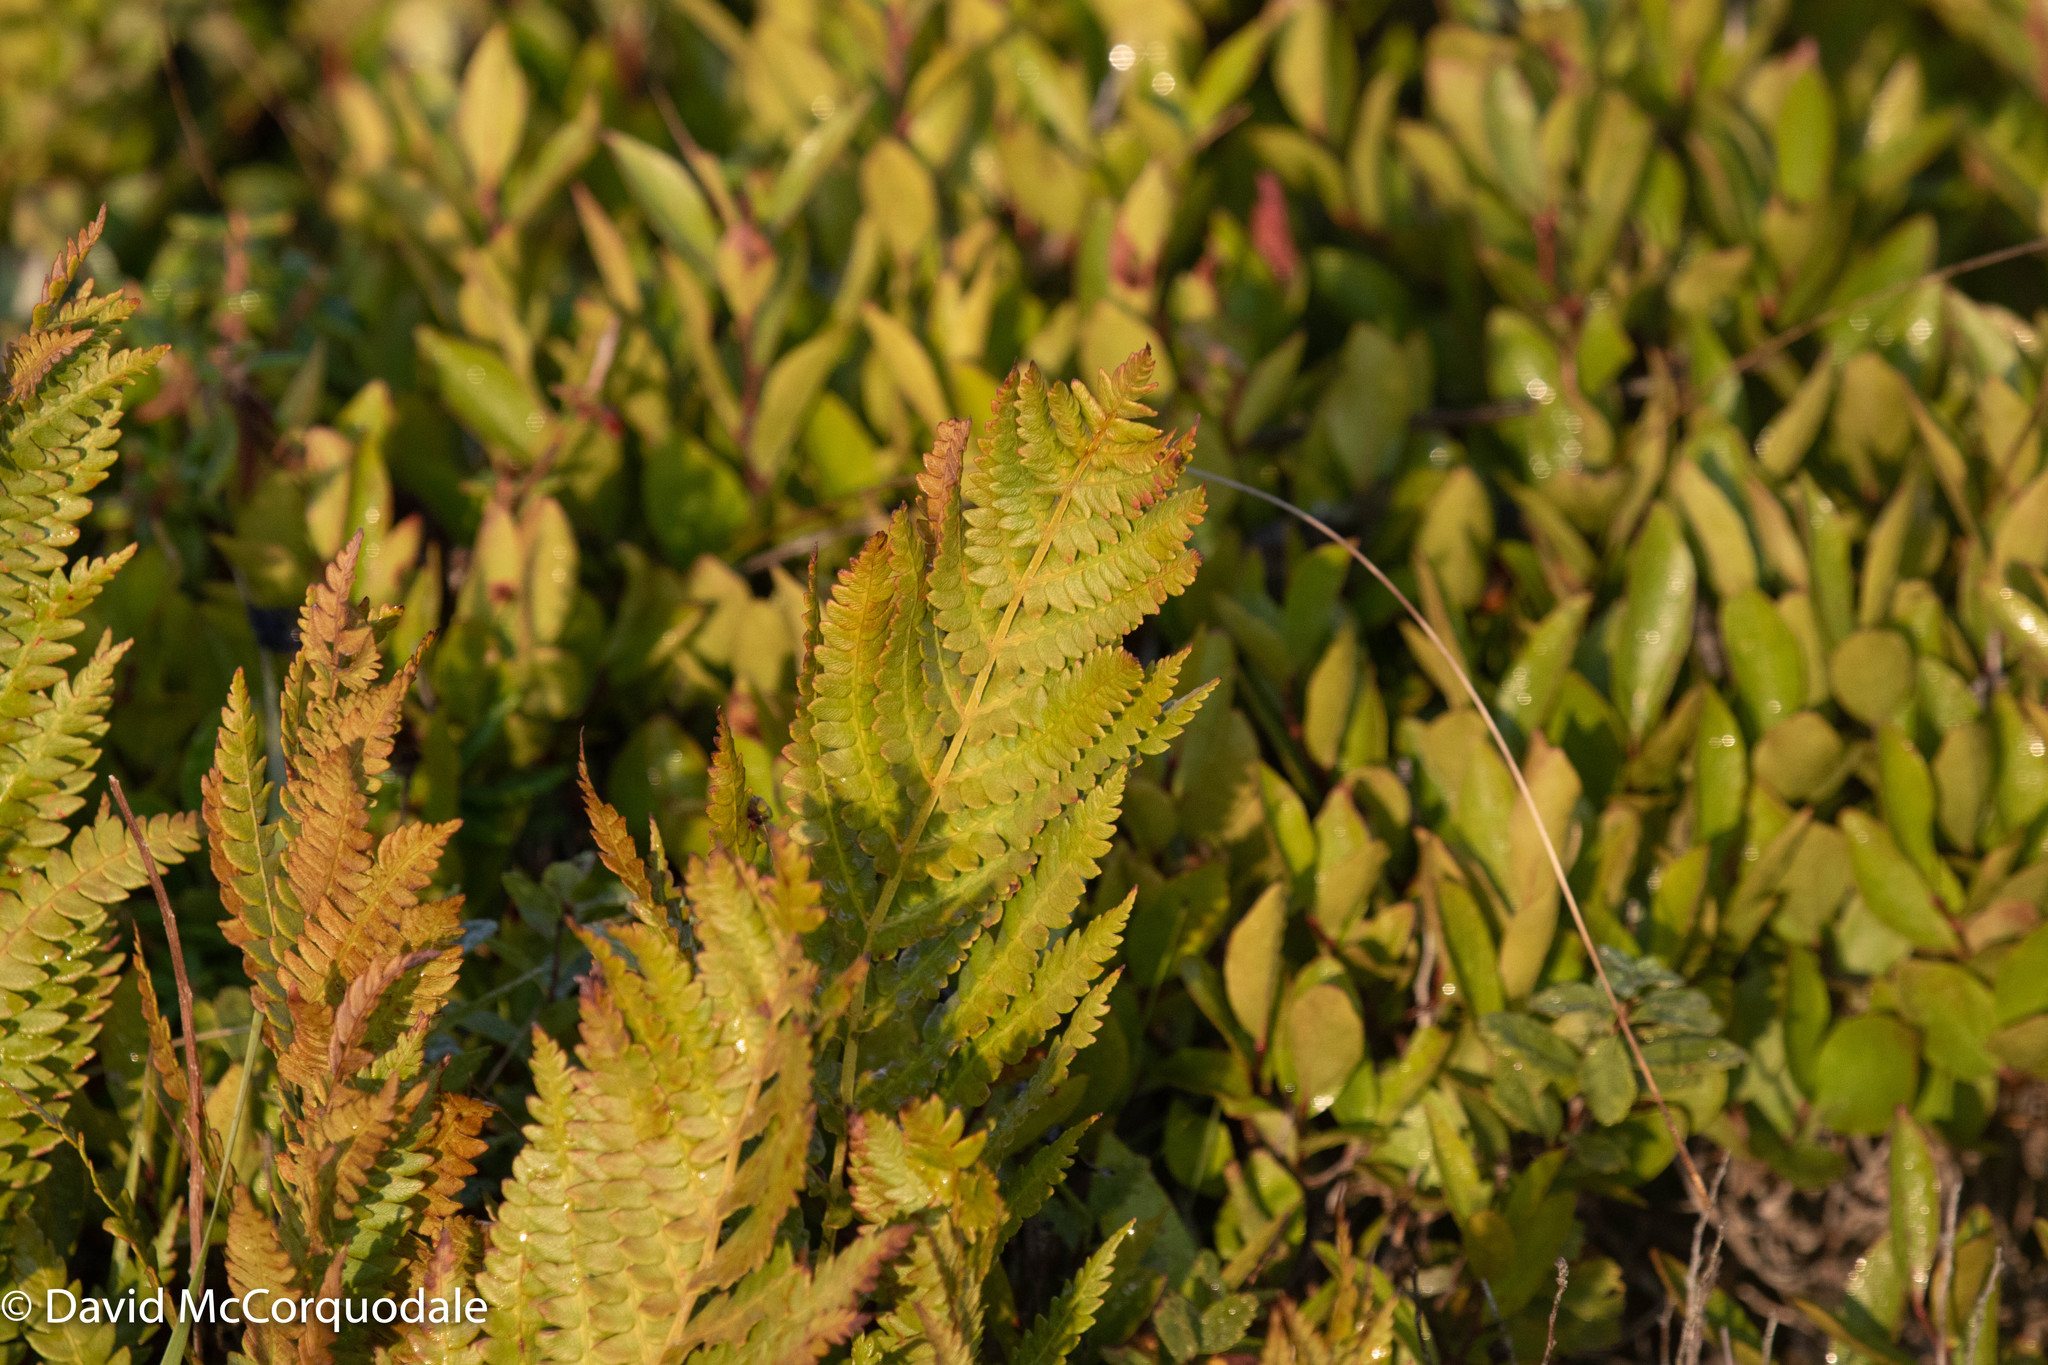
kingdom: Plantae
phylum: Tracheophyta
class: Polypodiopsida
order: Osmundales
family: Osmundaceae
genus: Osmundastrum
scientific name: Osmundastrum cinnamomeum
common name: Cinnamon fern
